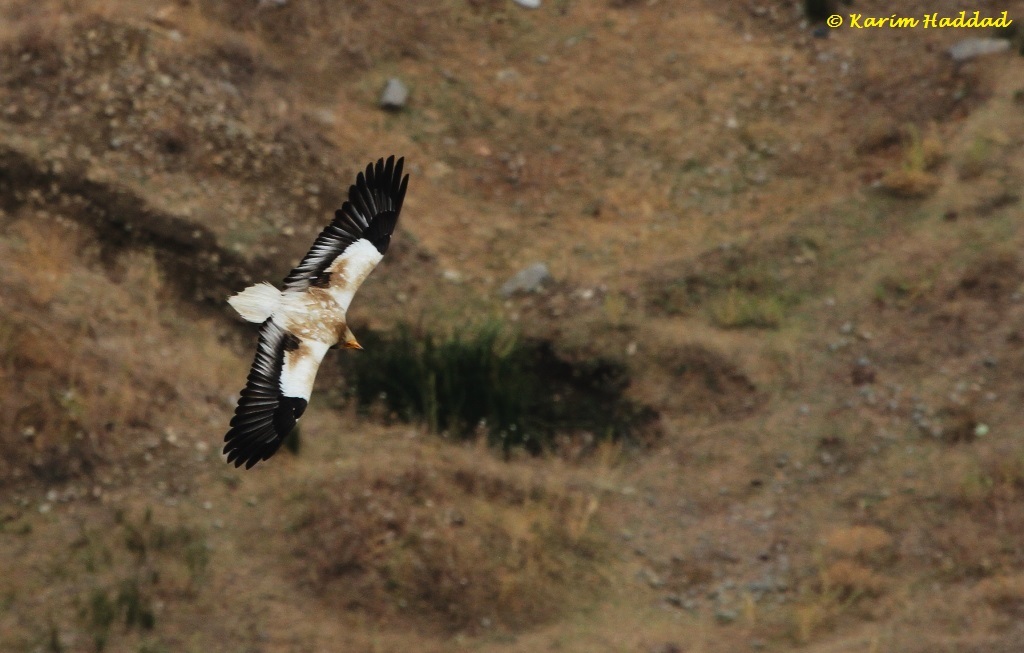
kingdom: Animalia
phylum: Chordata
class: Aves
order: Accipitriformes
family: Accipitridae
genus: Neophron
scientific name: Neophron percnopterus
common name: Egyptian vulture
